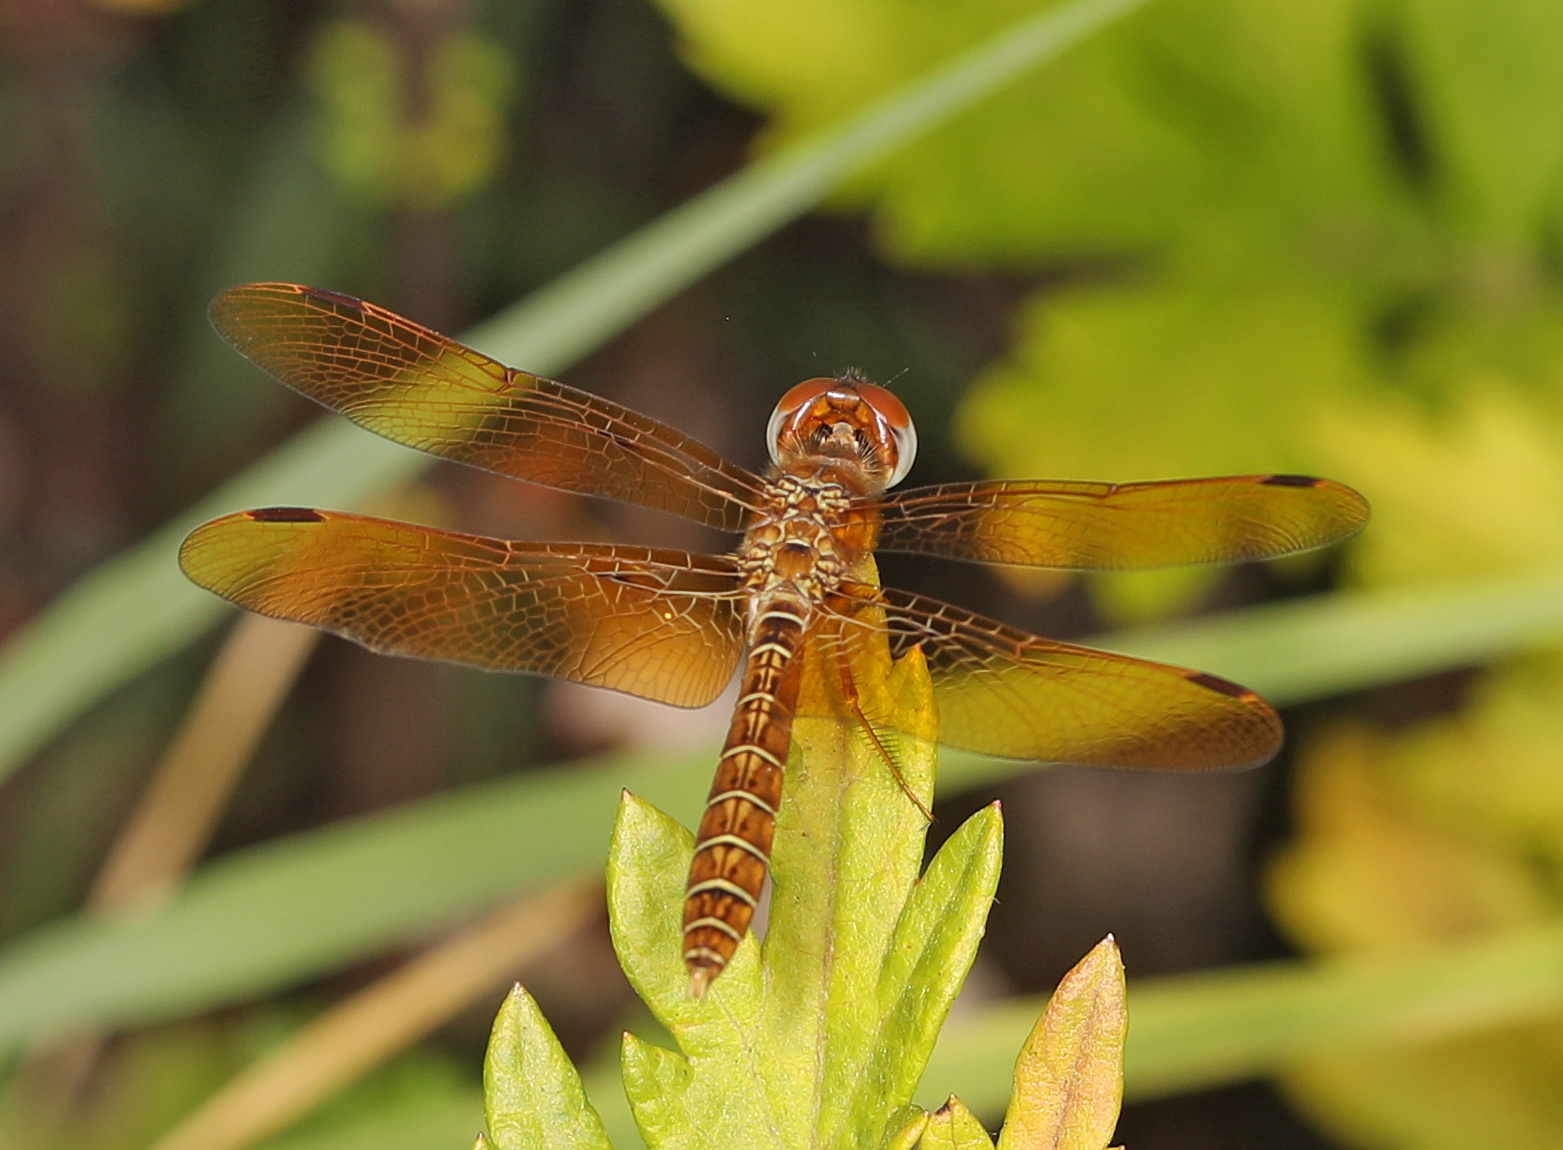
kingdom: Animalia
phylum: Arthropoda
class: Insecta
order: Odonata
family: Libellulidae
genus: Perithemis
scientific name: Perithemis tenera
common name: Eastern amberwing
